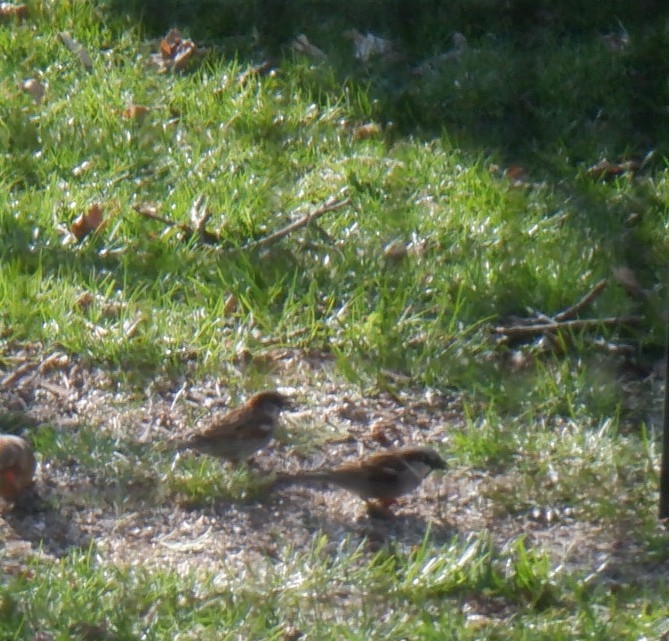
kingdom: Animalia
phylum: Chordata
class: Aves
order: Passeriformes
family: Passeridae
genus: Passer
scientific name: Passer domesticus
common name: House sparrow
